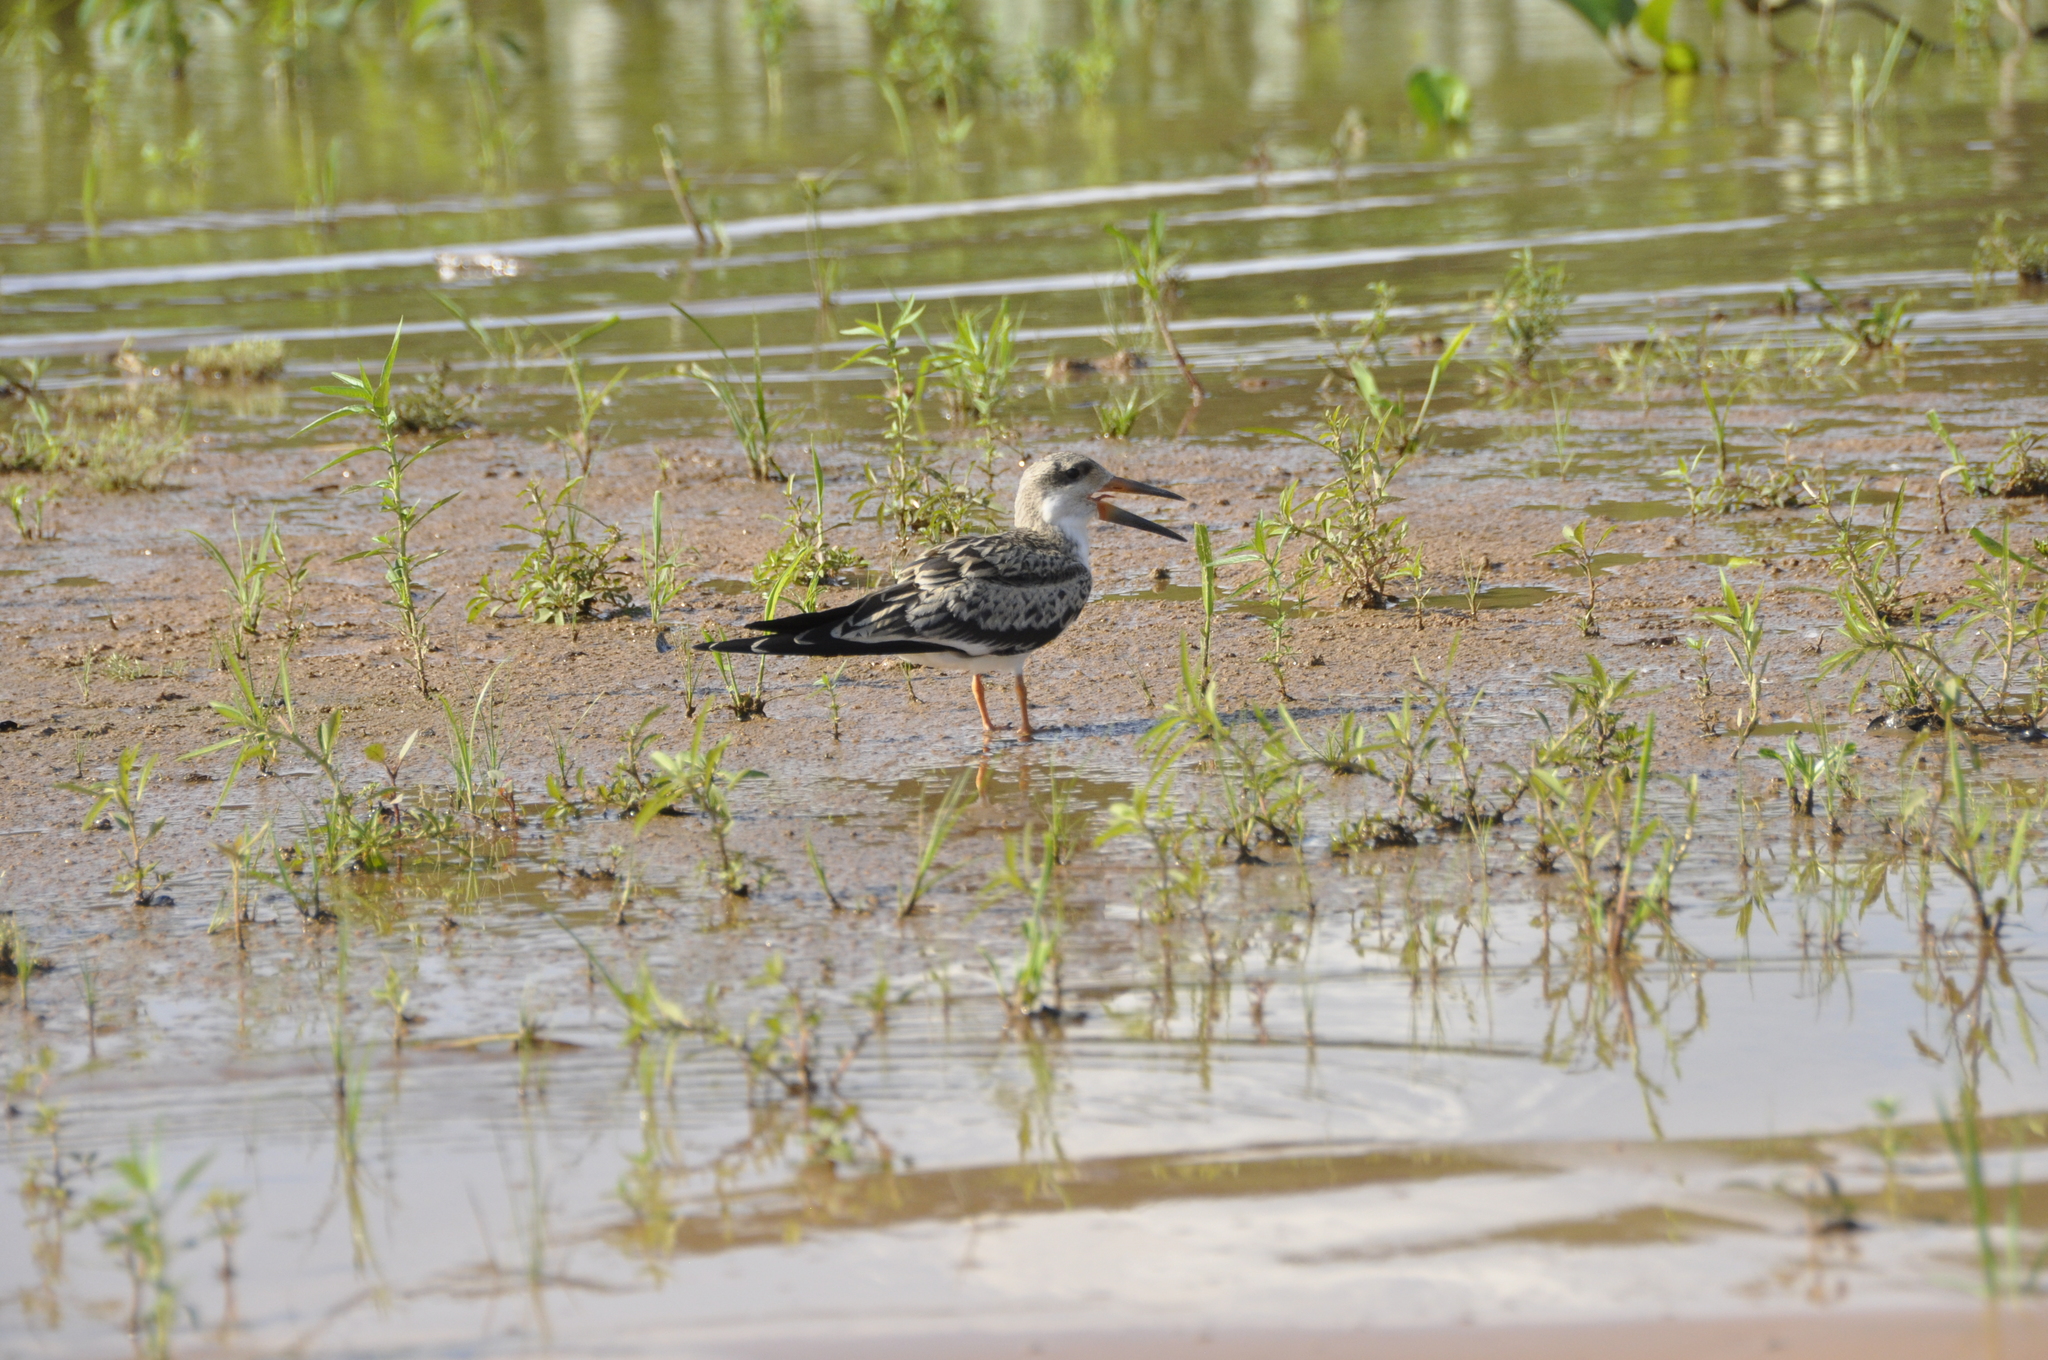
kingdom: Animalia
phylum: Chordata
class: Aves
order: Charadriiformes
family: Laridae
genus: Rynchops
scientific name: Rynchops niger
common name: Black skimmer
